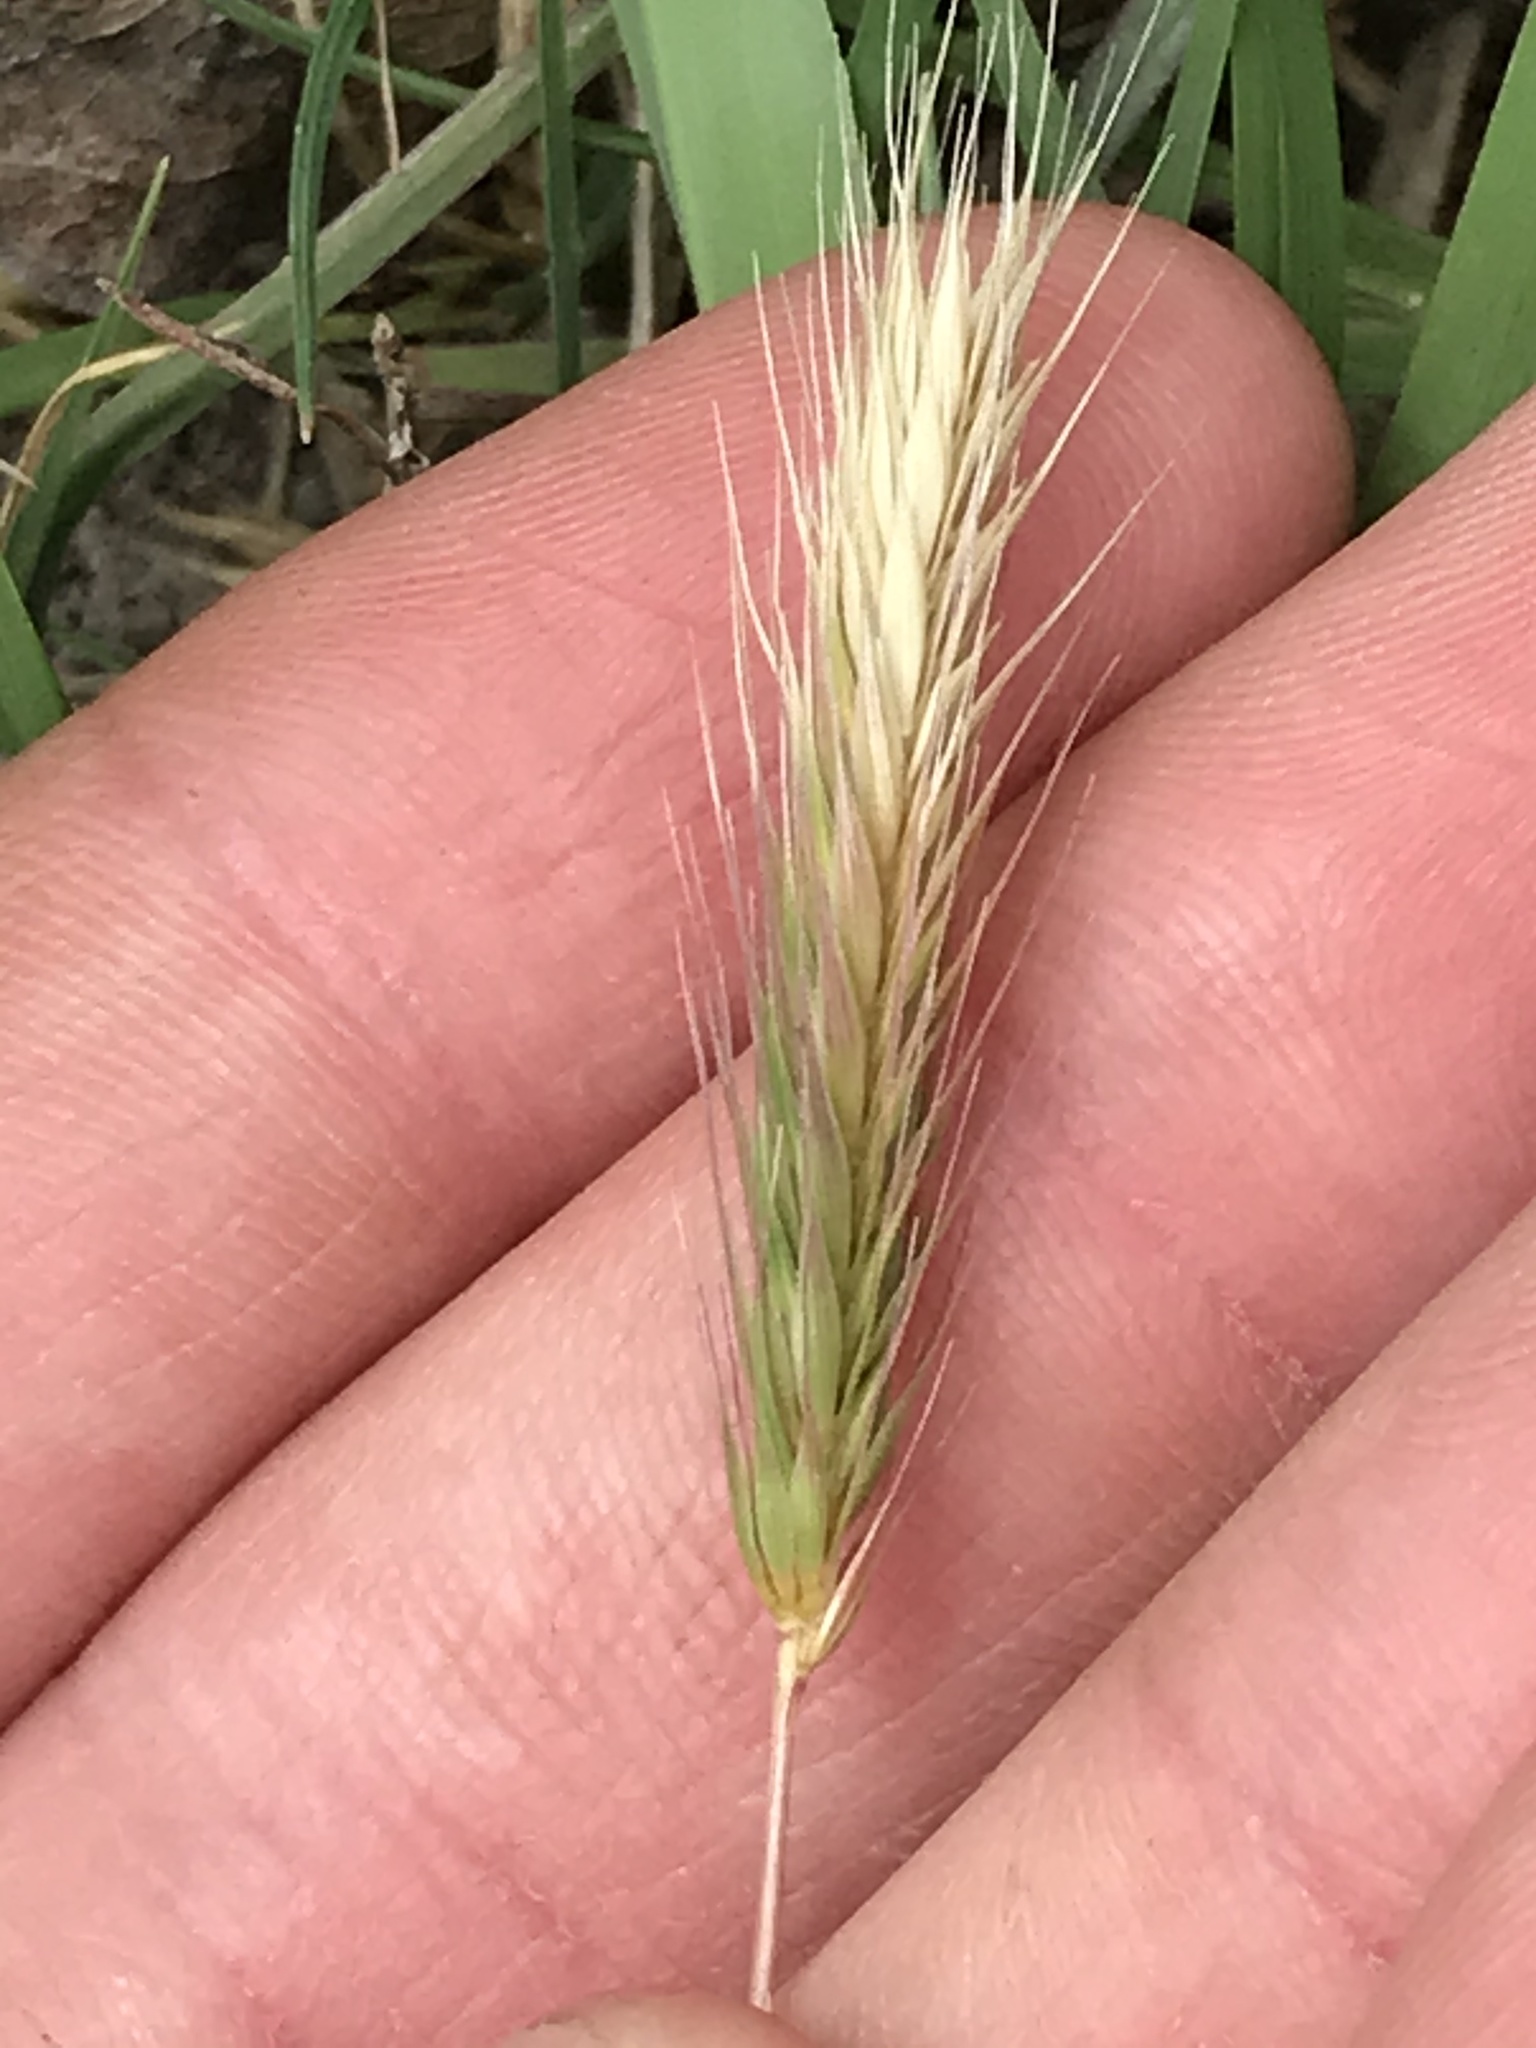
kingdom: Plantae
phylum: Tracheophyta
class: Liliopsida
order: Poales
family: Poaceae
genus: Hordeum
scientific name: Hordeum murinum
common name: Wall barley
